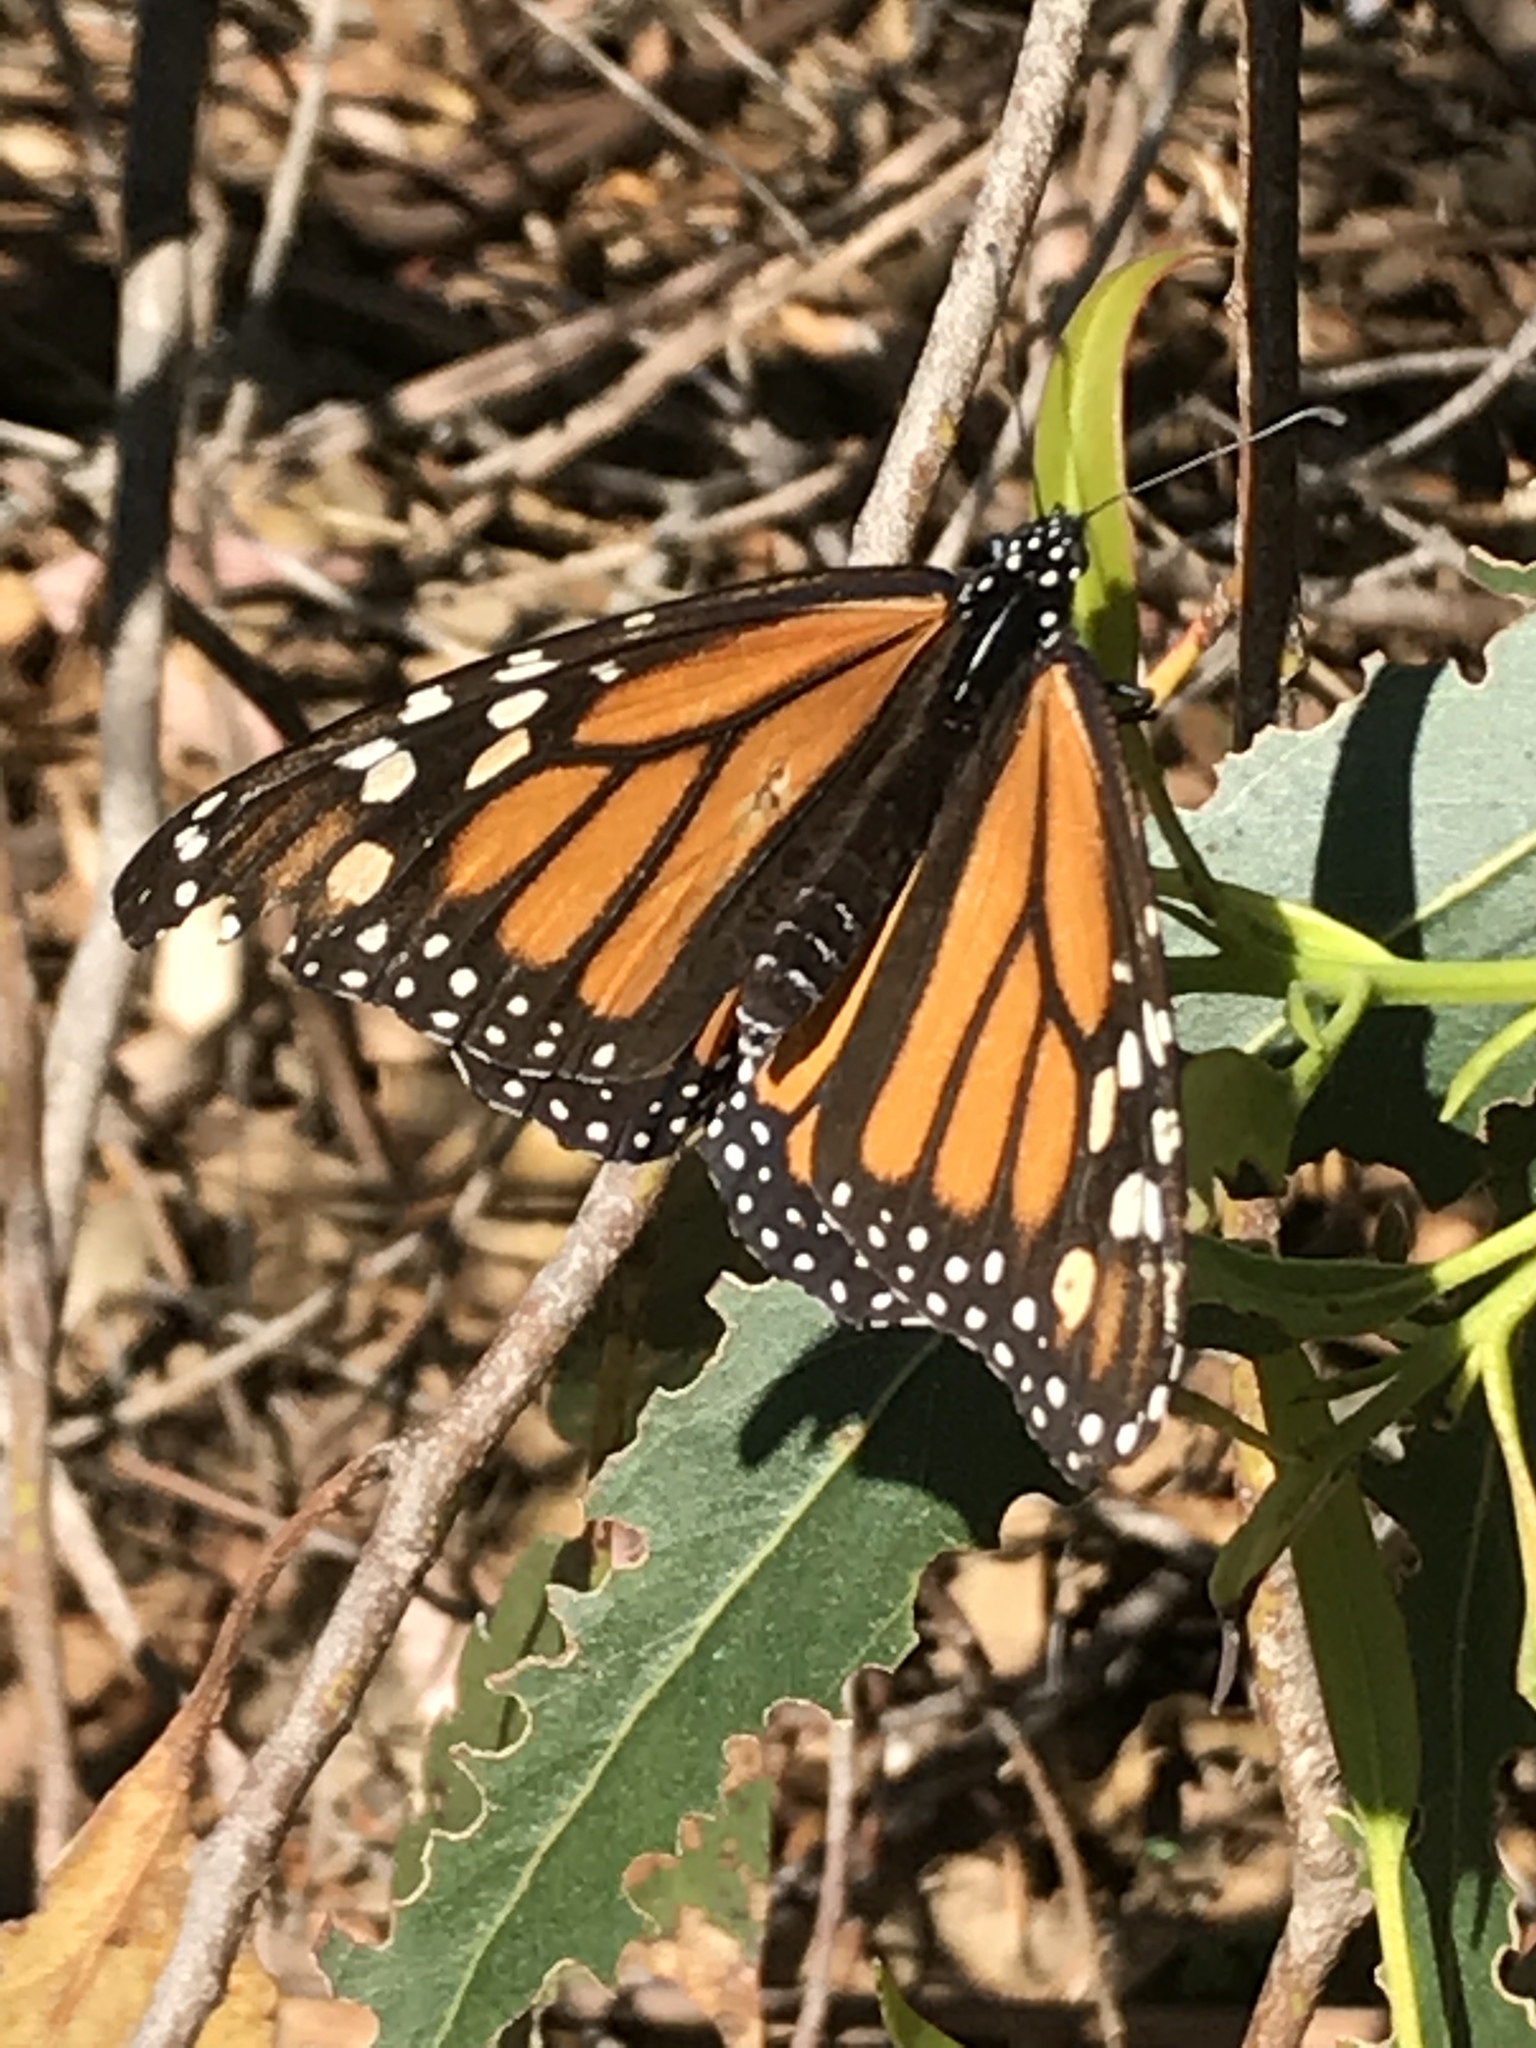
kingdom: Animalia
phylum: Arthropoda
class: Insecta
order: Lepidoptera
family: Nymphalidae
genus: Danaus
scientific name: Danaus plexippus
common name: Monarch
